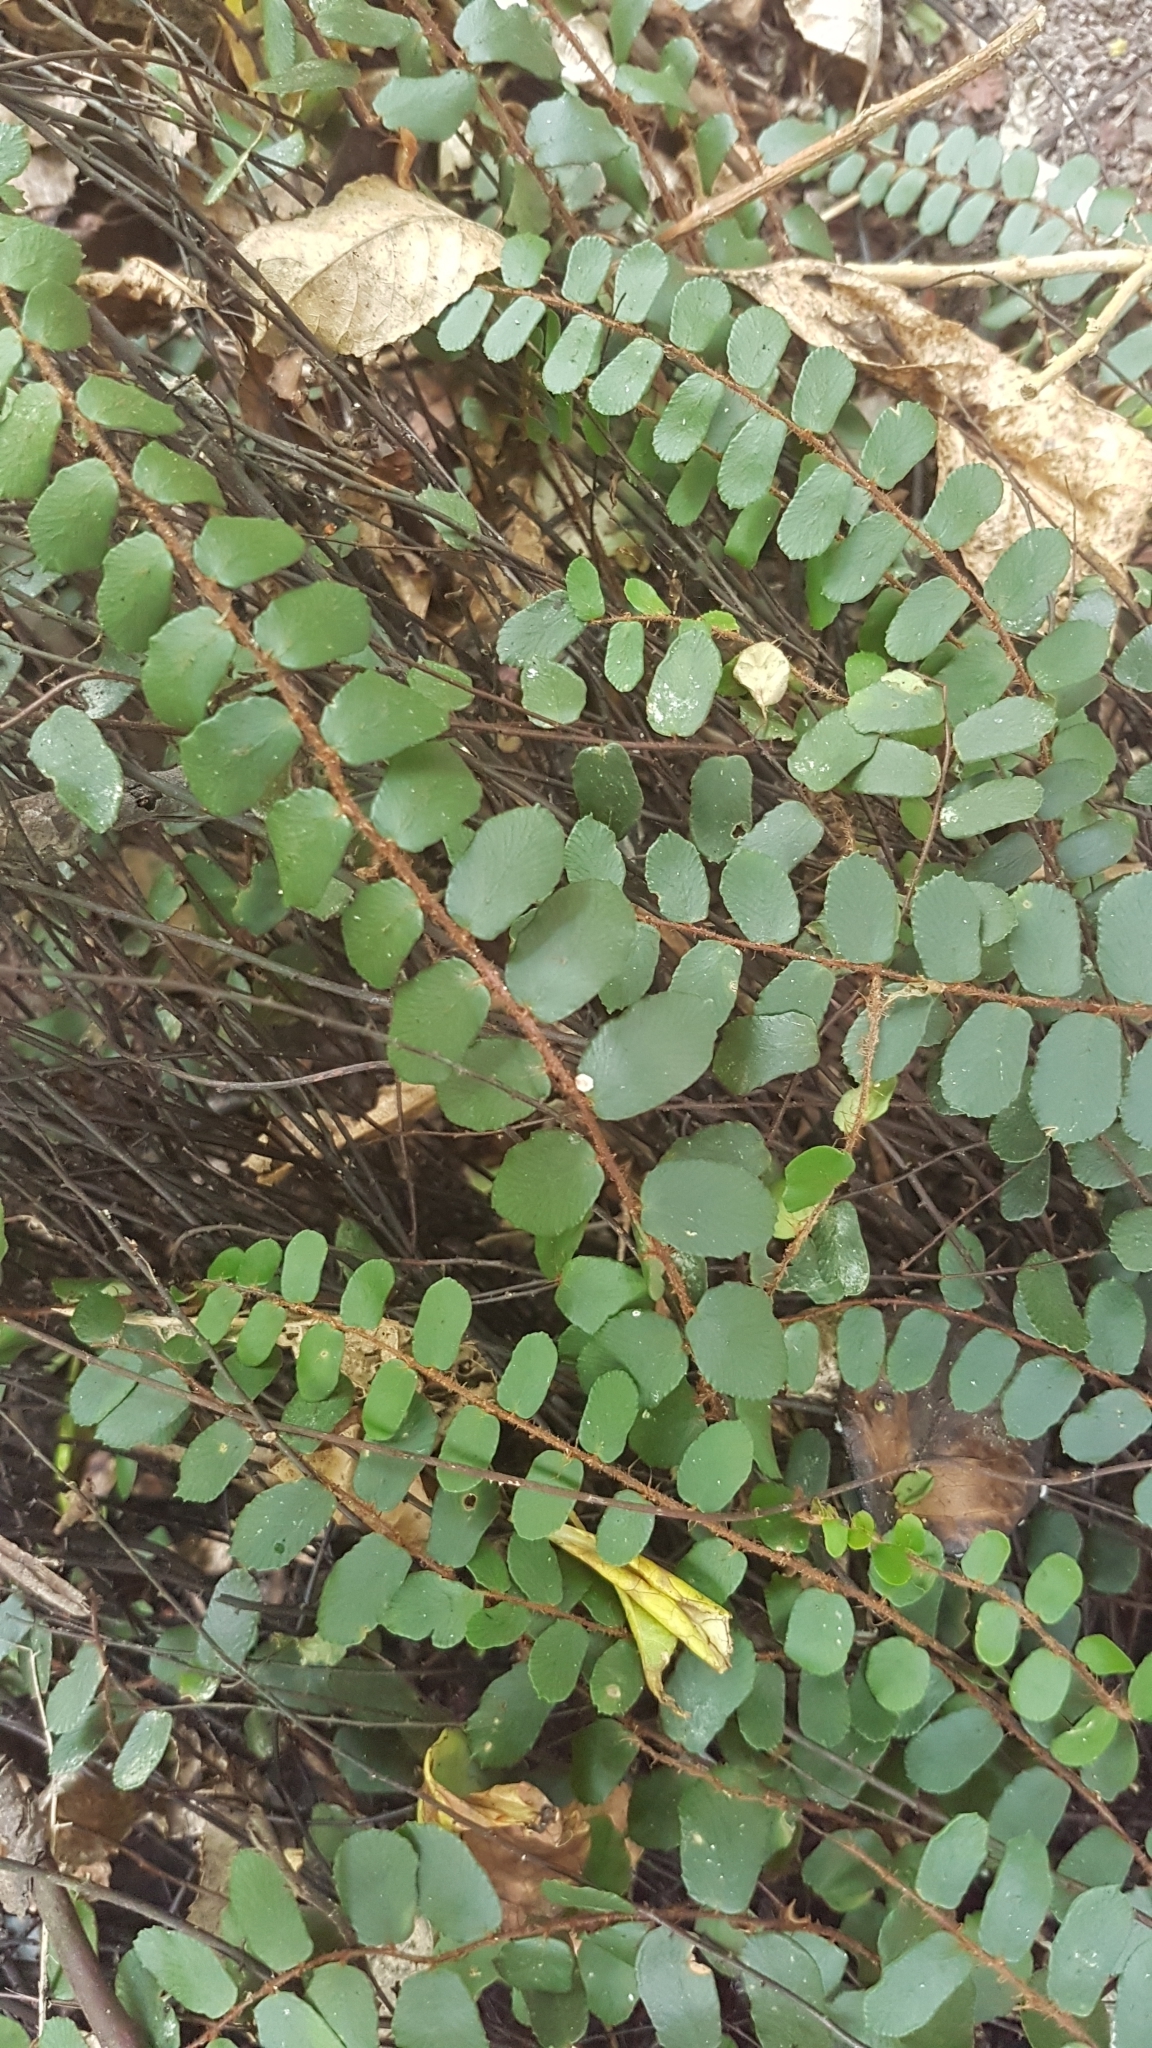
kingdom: Plantae
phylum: Tracheophyta
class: Polypodiopsida
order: Polypodiales
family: Pteridaceae
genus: Pellaea
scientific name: Pellaea rotundifolia
